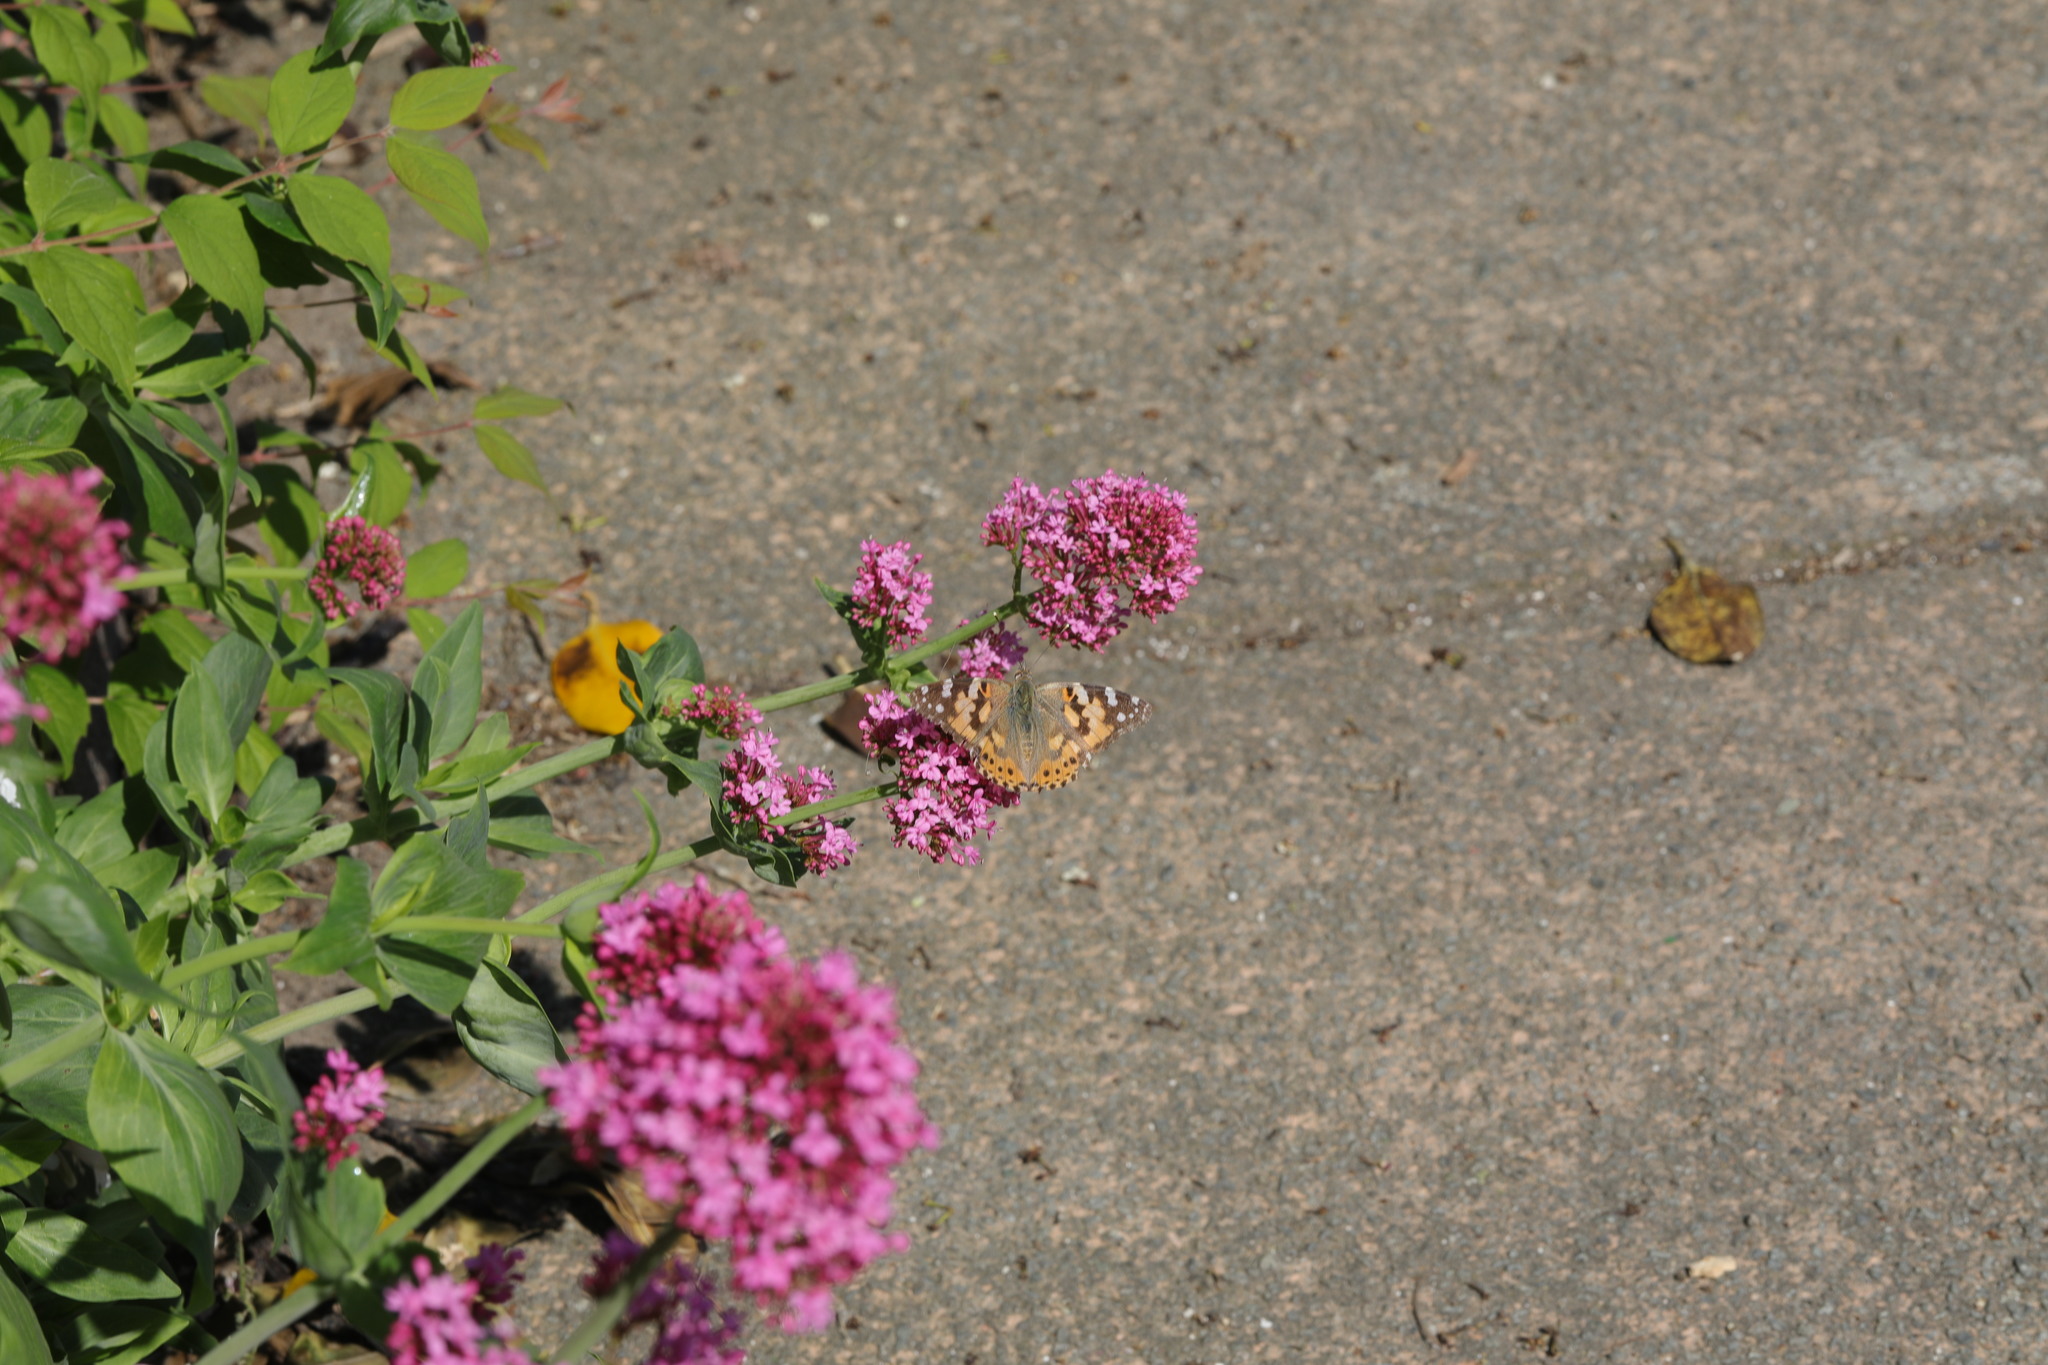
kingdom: Animalia
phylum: Arthropoda
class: Insecta
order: Lepidoptera
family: Nymphalidae
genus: Vanessa
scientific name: Vanessa cardui
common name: Painted lady
